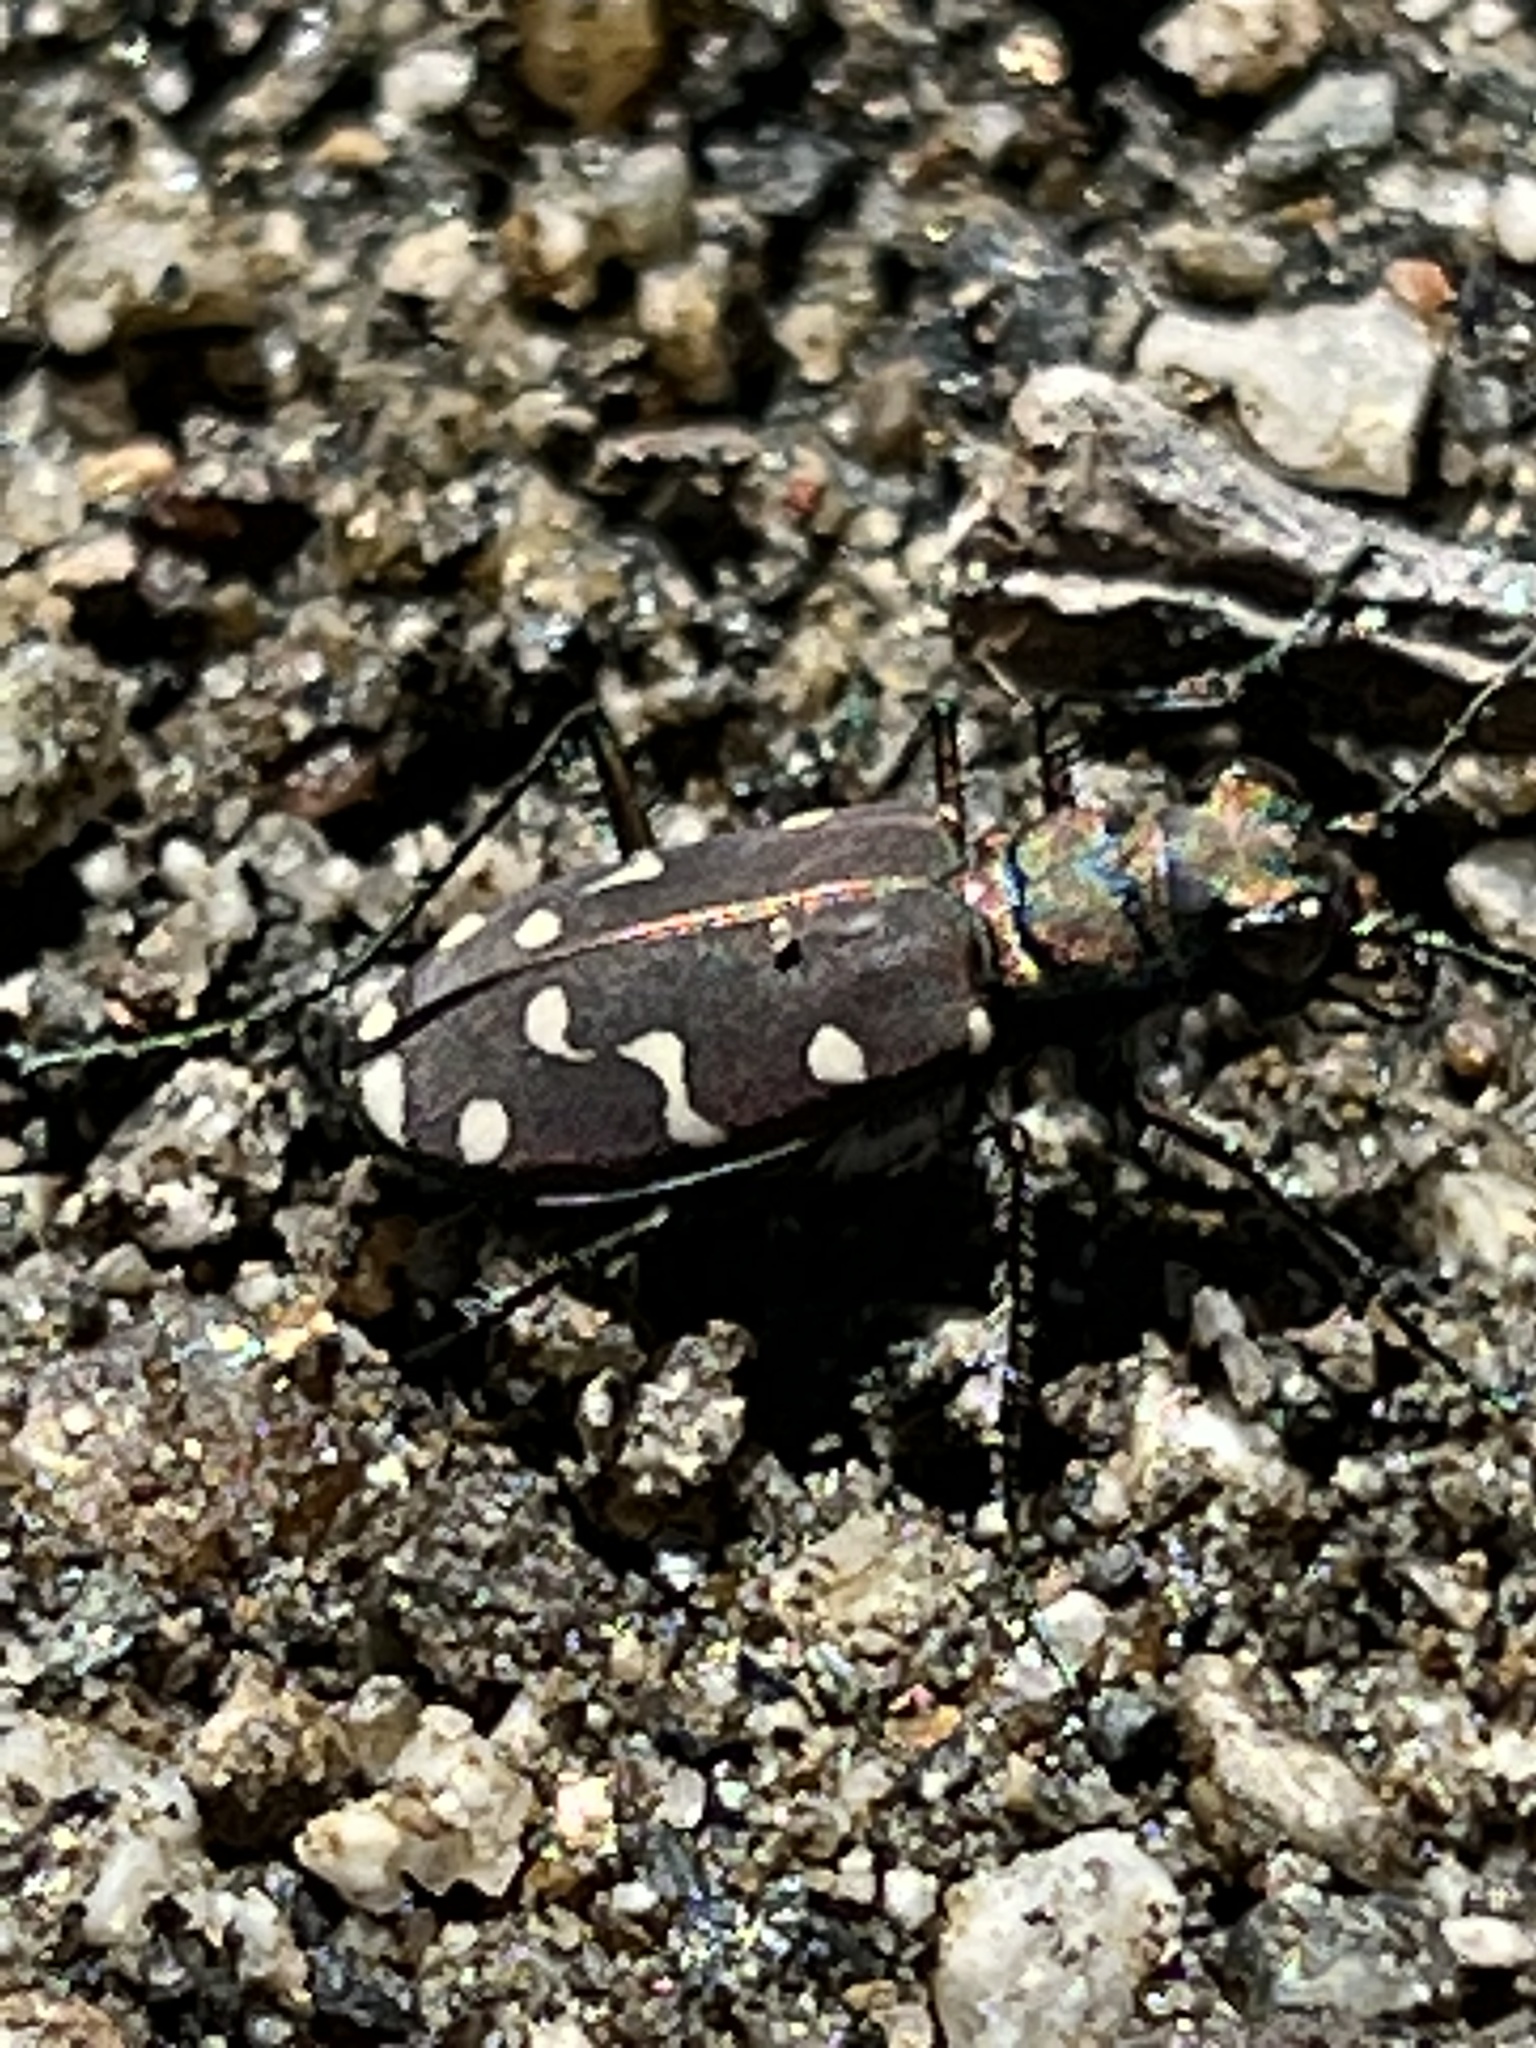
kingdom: Animalia
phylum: Arthropoda
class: Insecta
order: Coleoptera
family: Carabidae
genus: Cicindela
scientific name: Cicindela oregona
